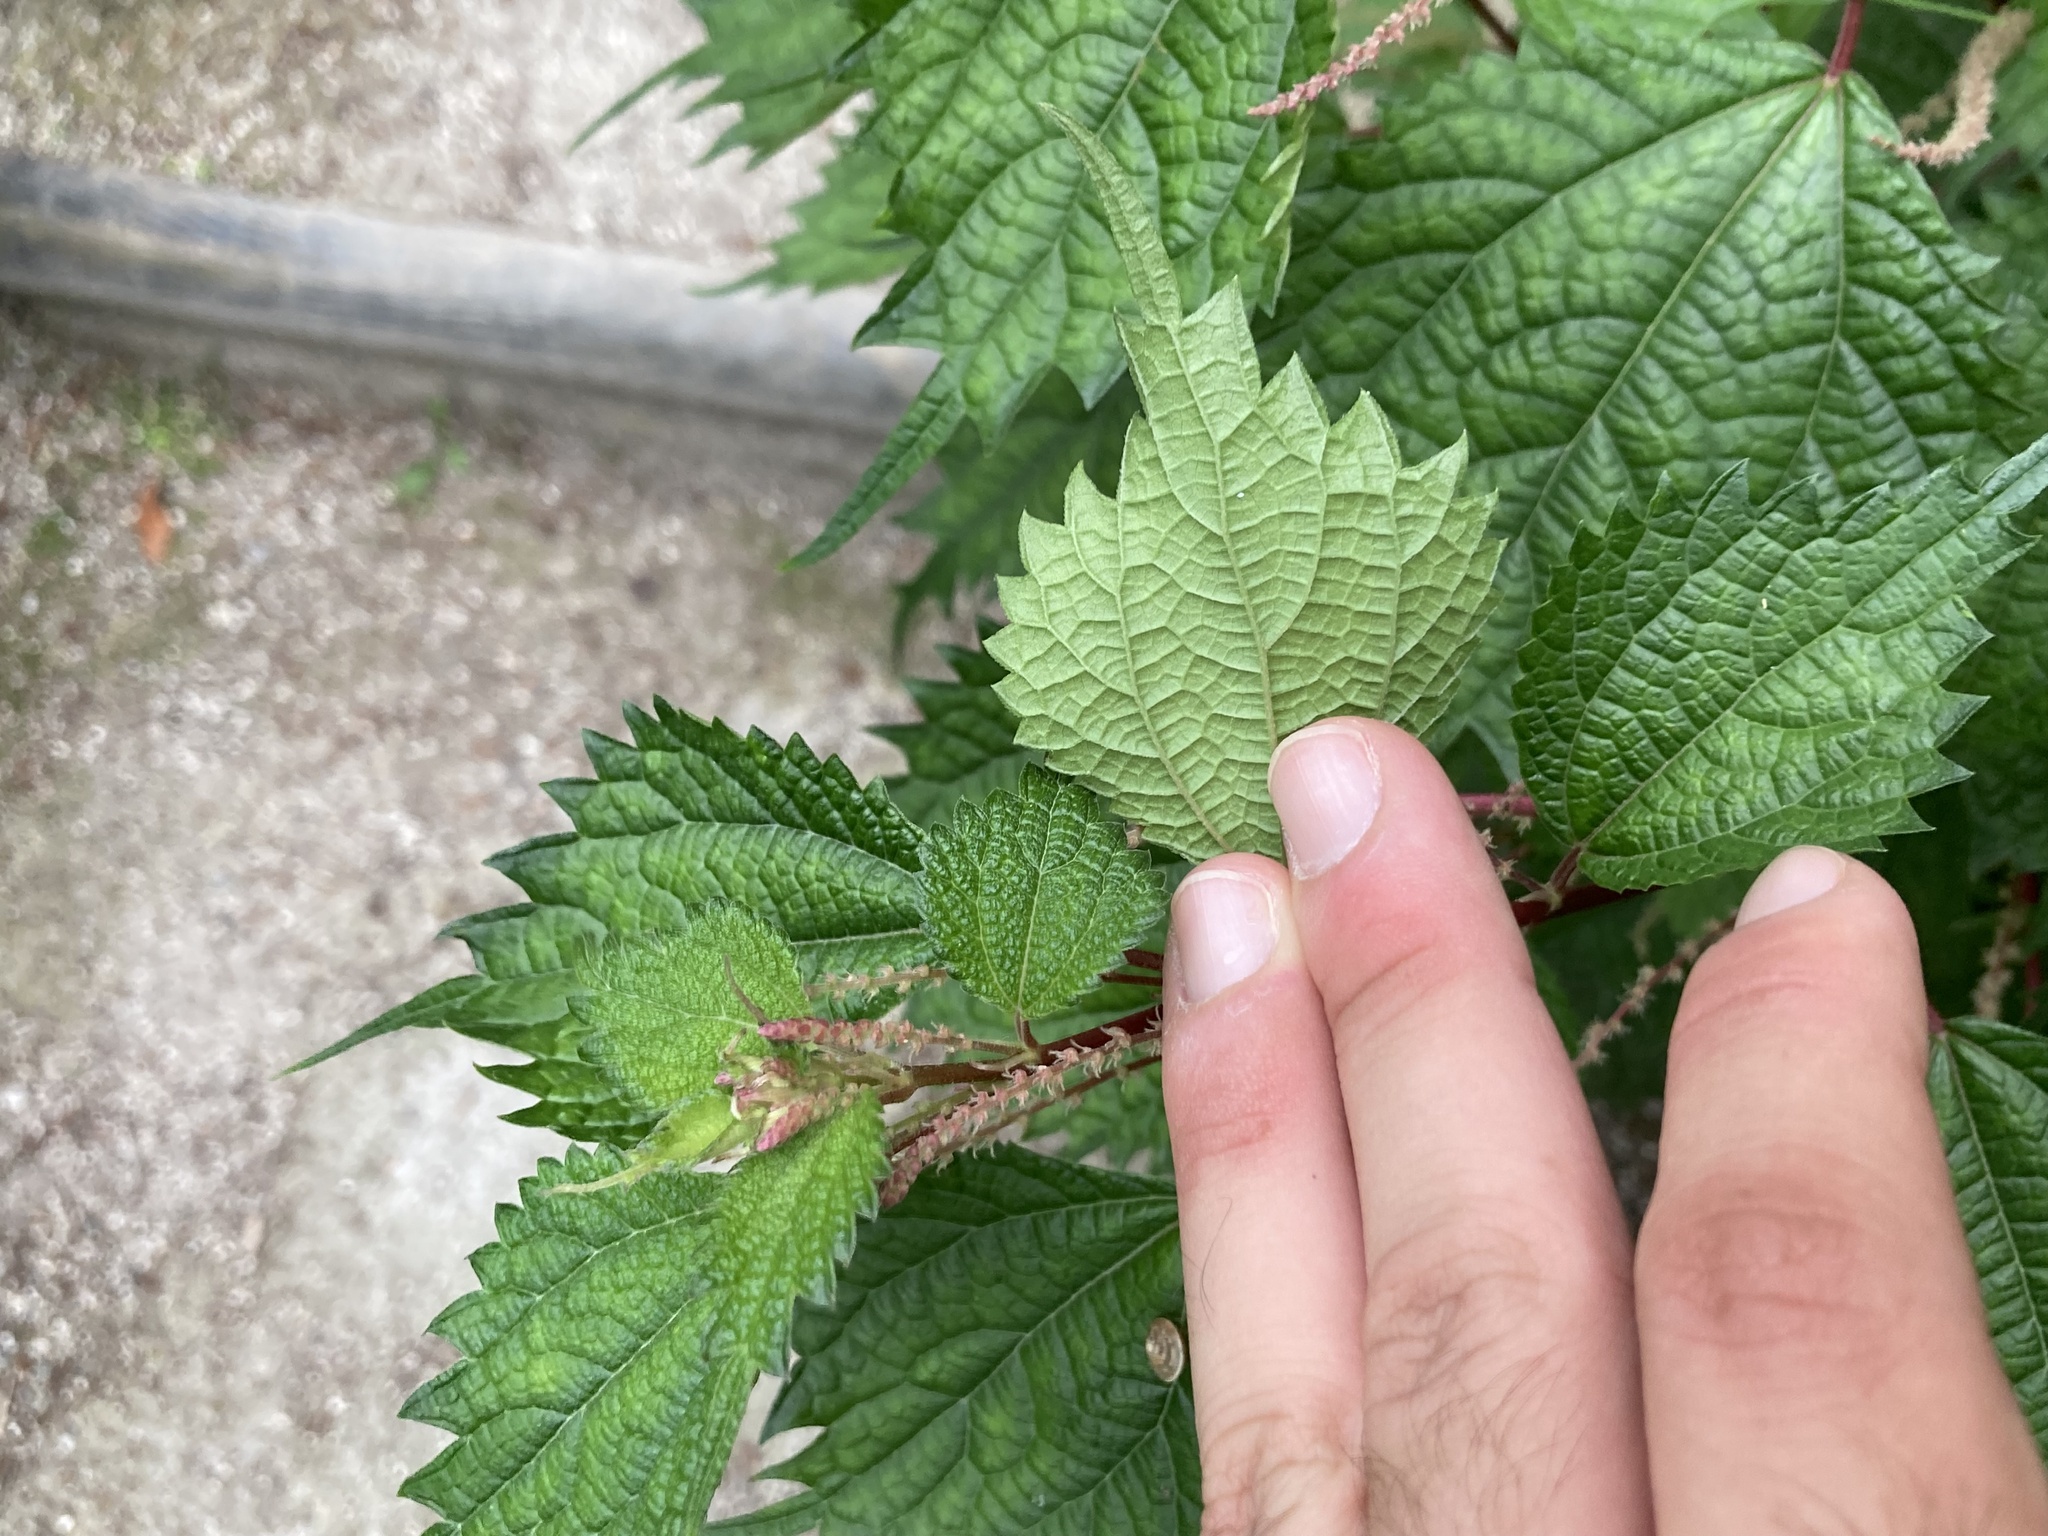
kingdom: Plantae
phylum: Tracheophyta
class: Magnoliopsida
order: Rosales
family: Urticaceae
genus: Urtica
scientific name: Urtica dioica
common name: Common nettle
